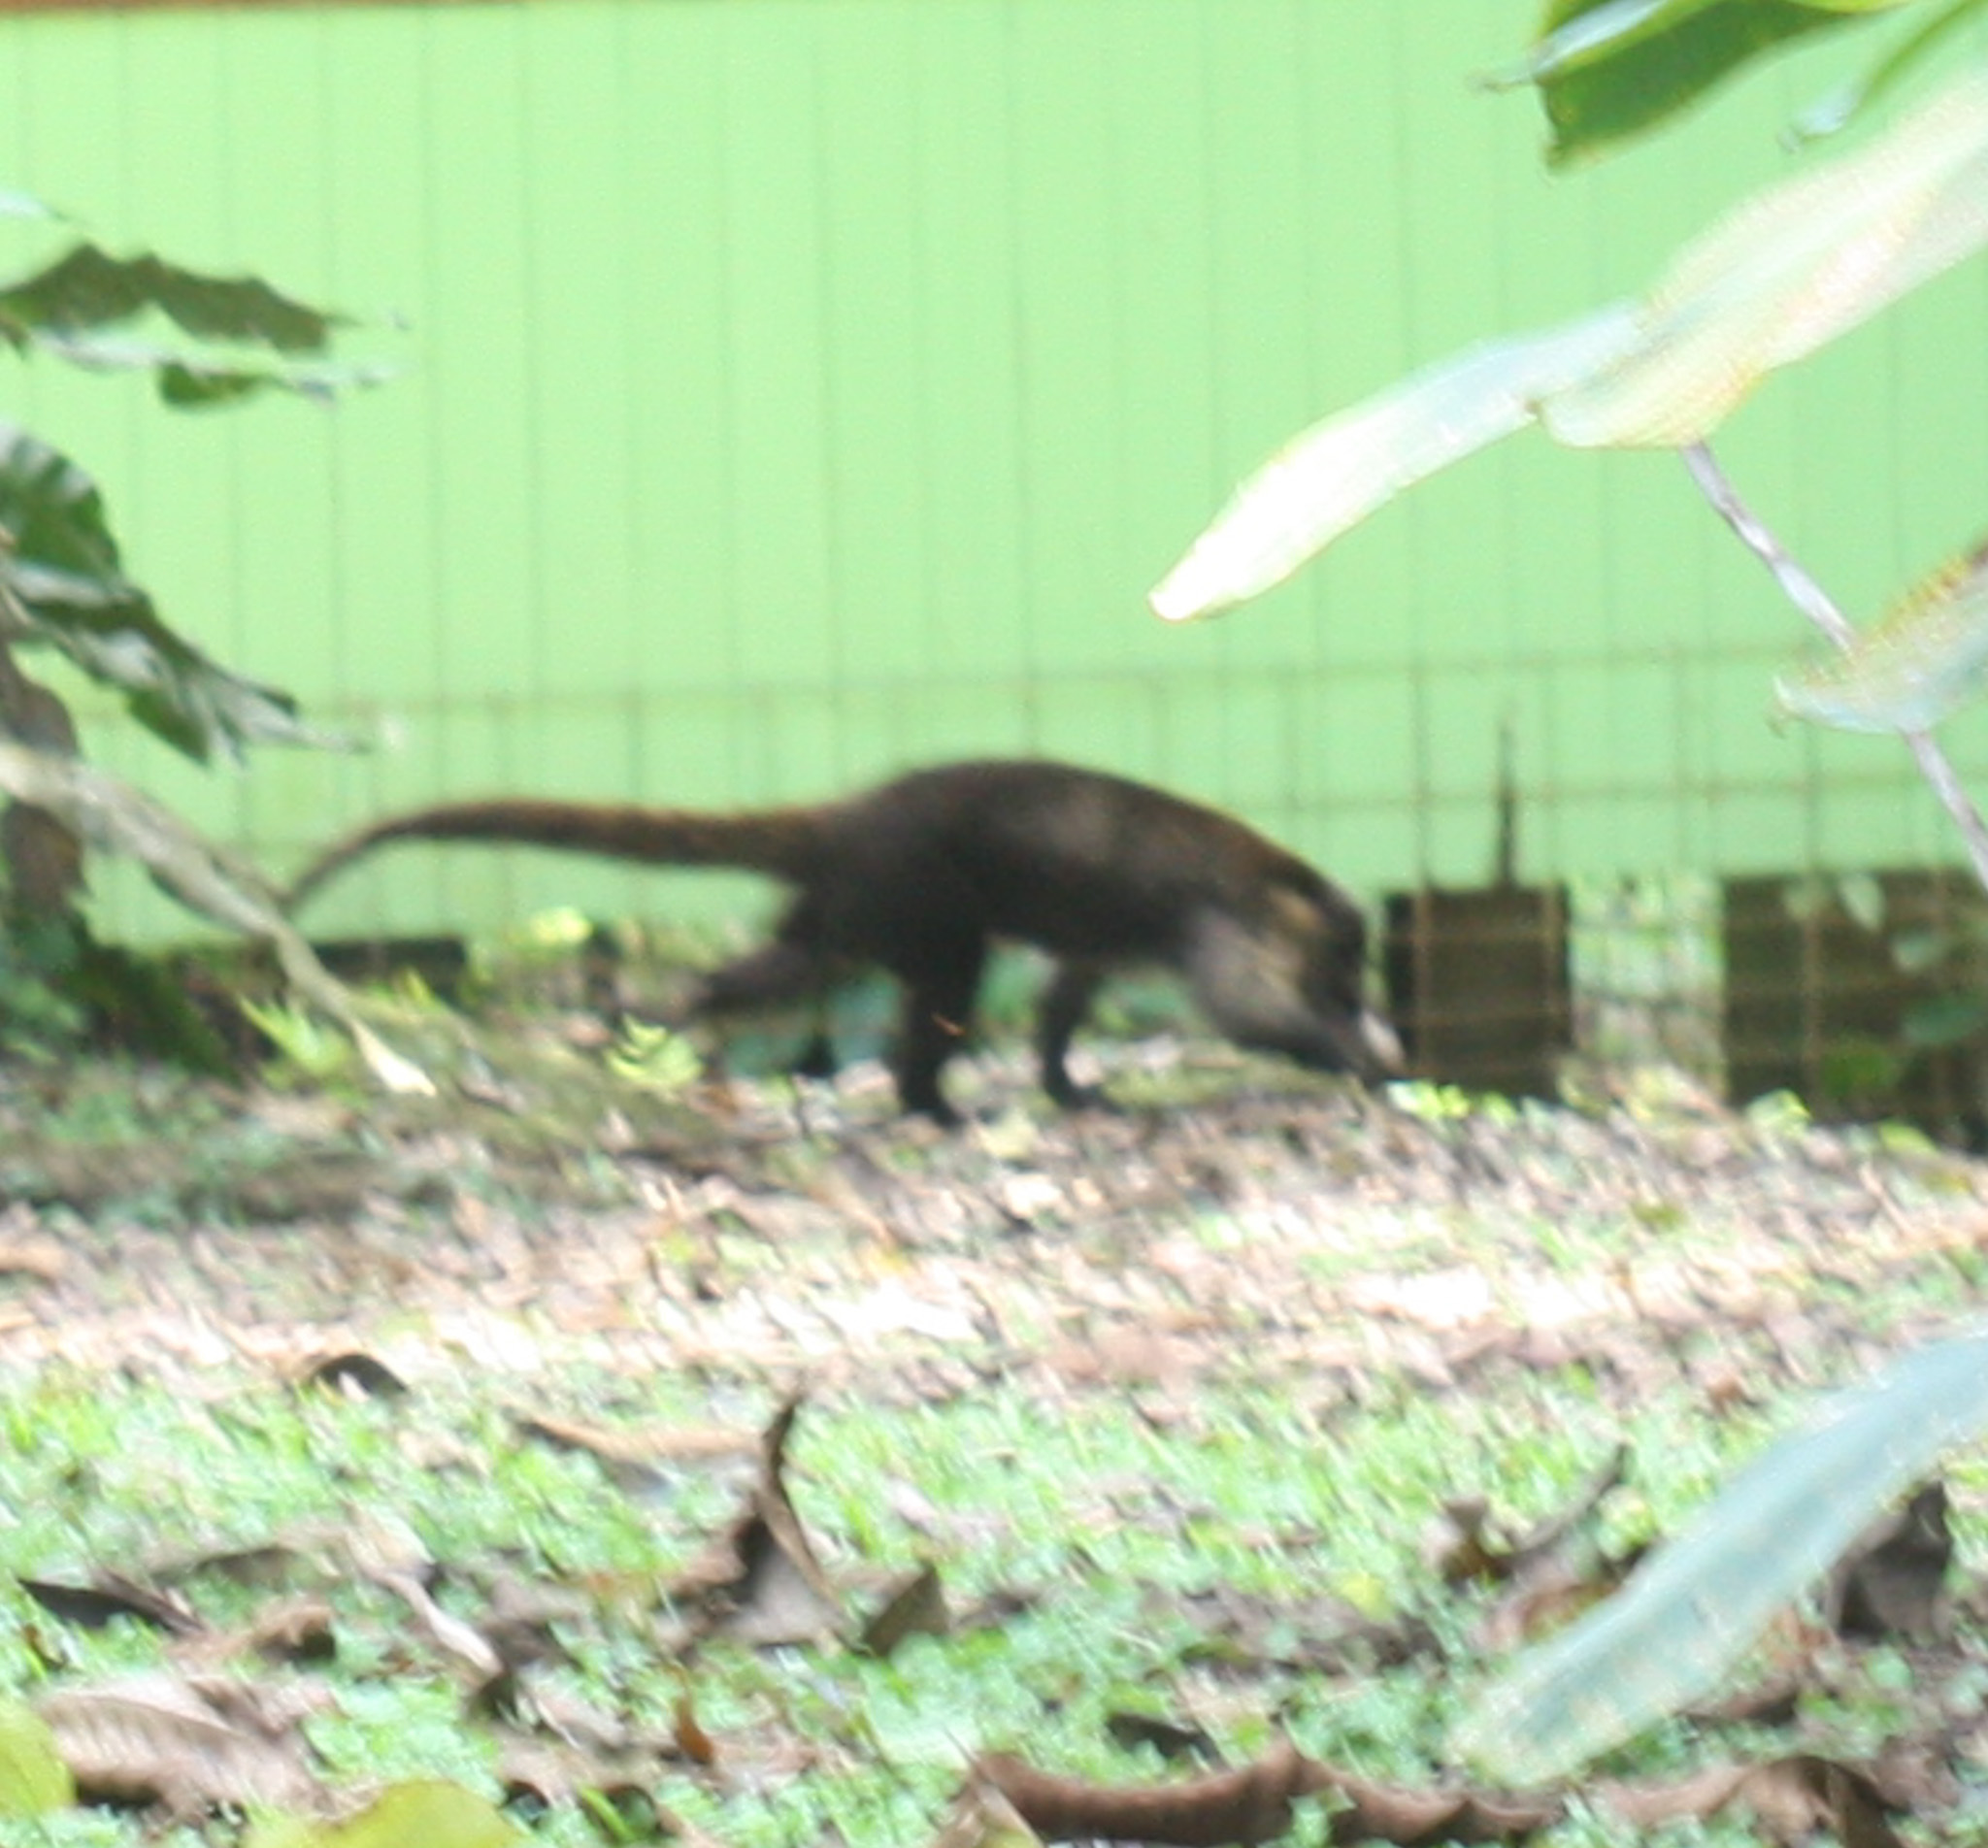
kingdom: Animalia
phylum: Chordata
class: Mammalia
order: Carnivora
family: Procyonidae
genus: Nasua
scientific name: Nasua narica
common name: White-nosed coati
